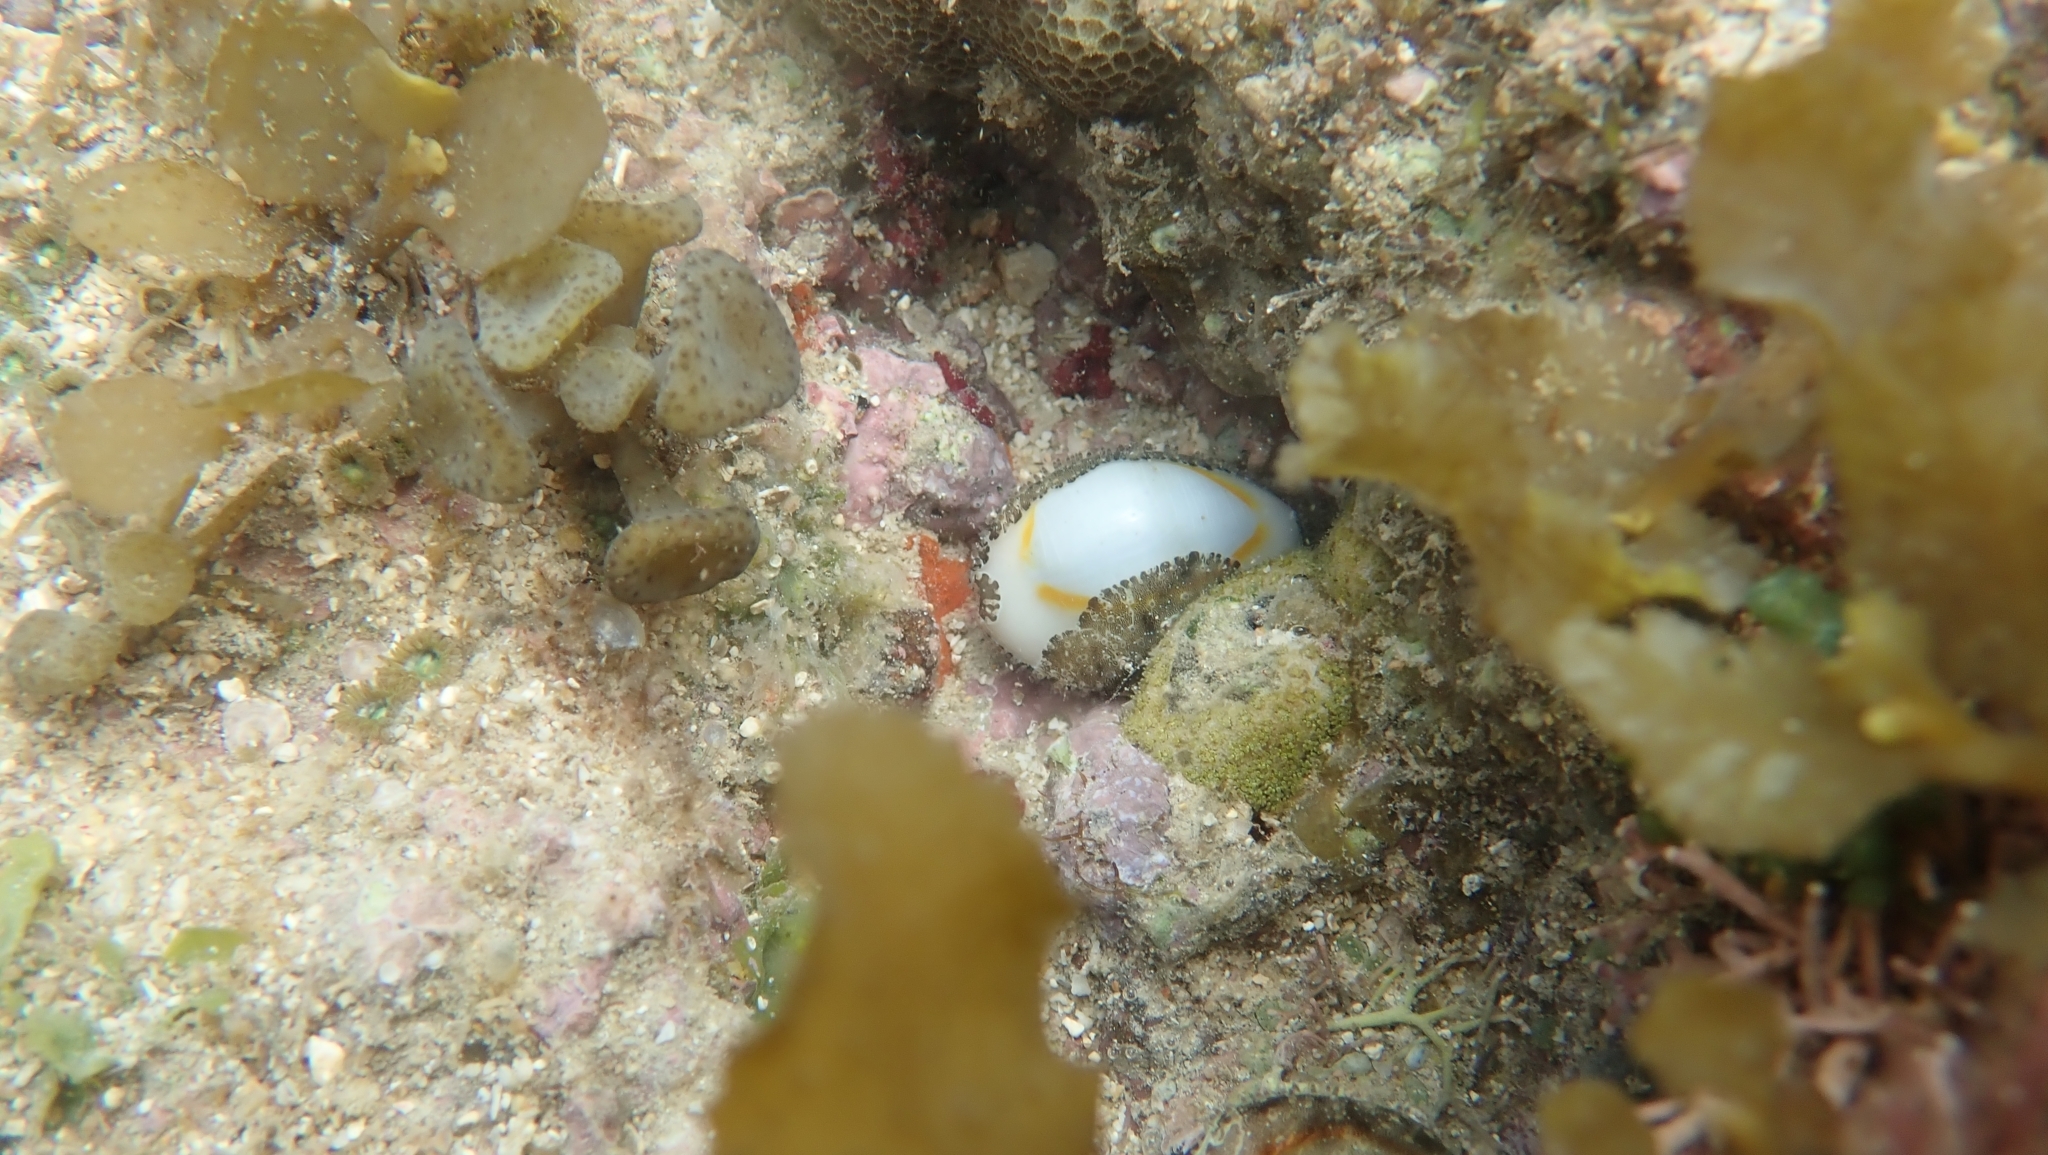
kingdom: Animalia
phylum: Mollusca
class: Gastropoda
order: Littorinimorpha
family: Cypraeidae
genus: Monetaria
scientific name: Monetaria annulus
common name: Ring cowrie
